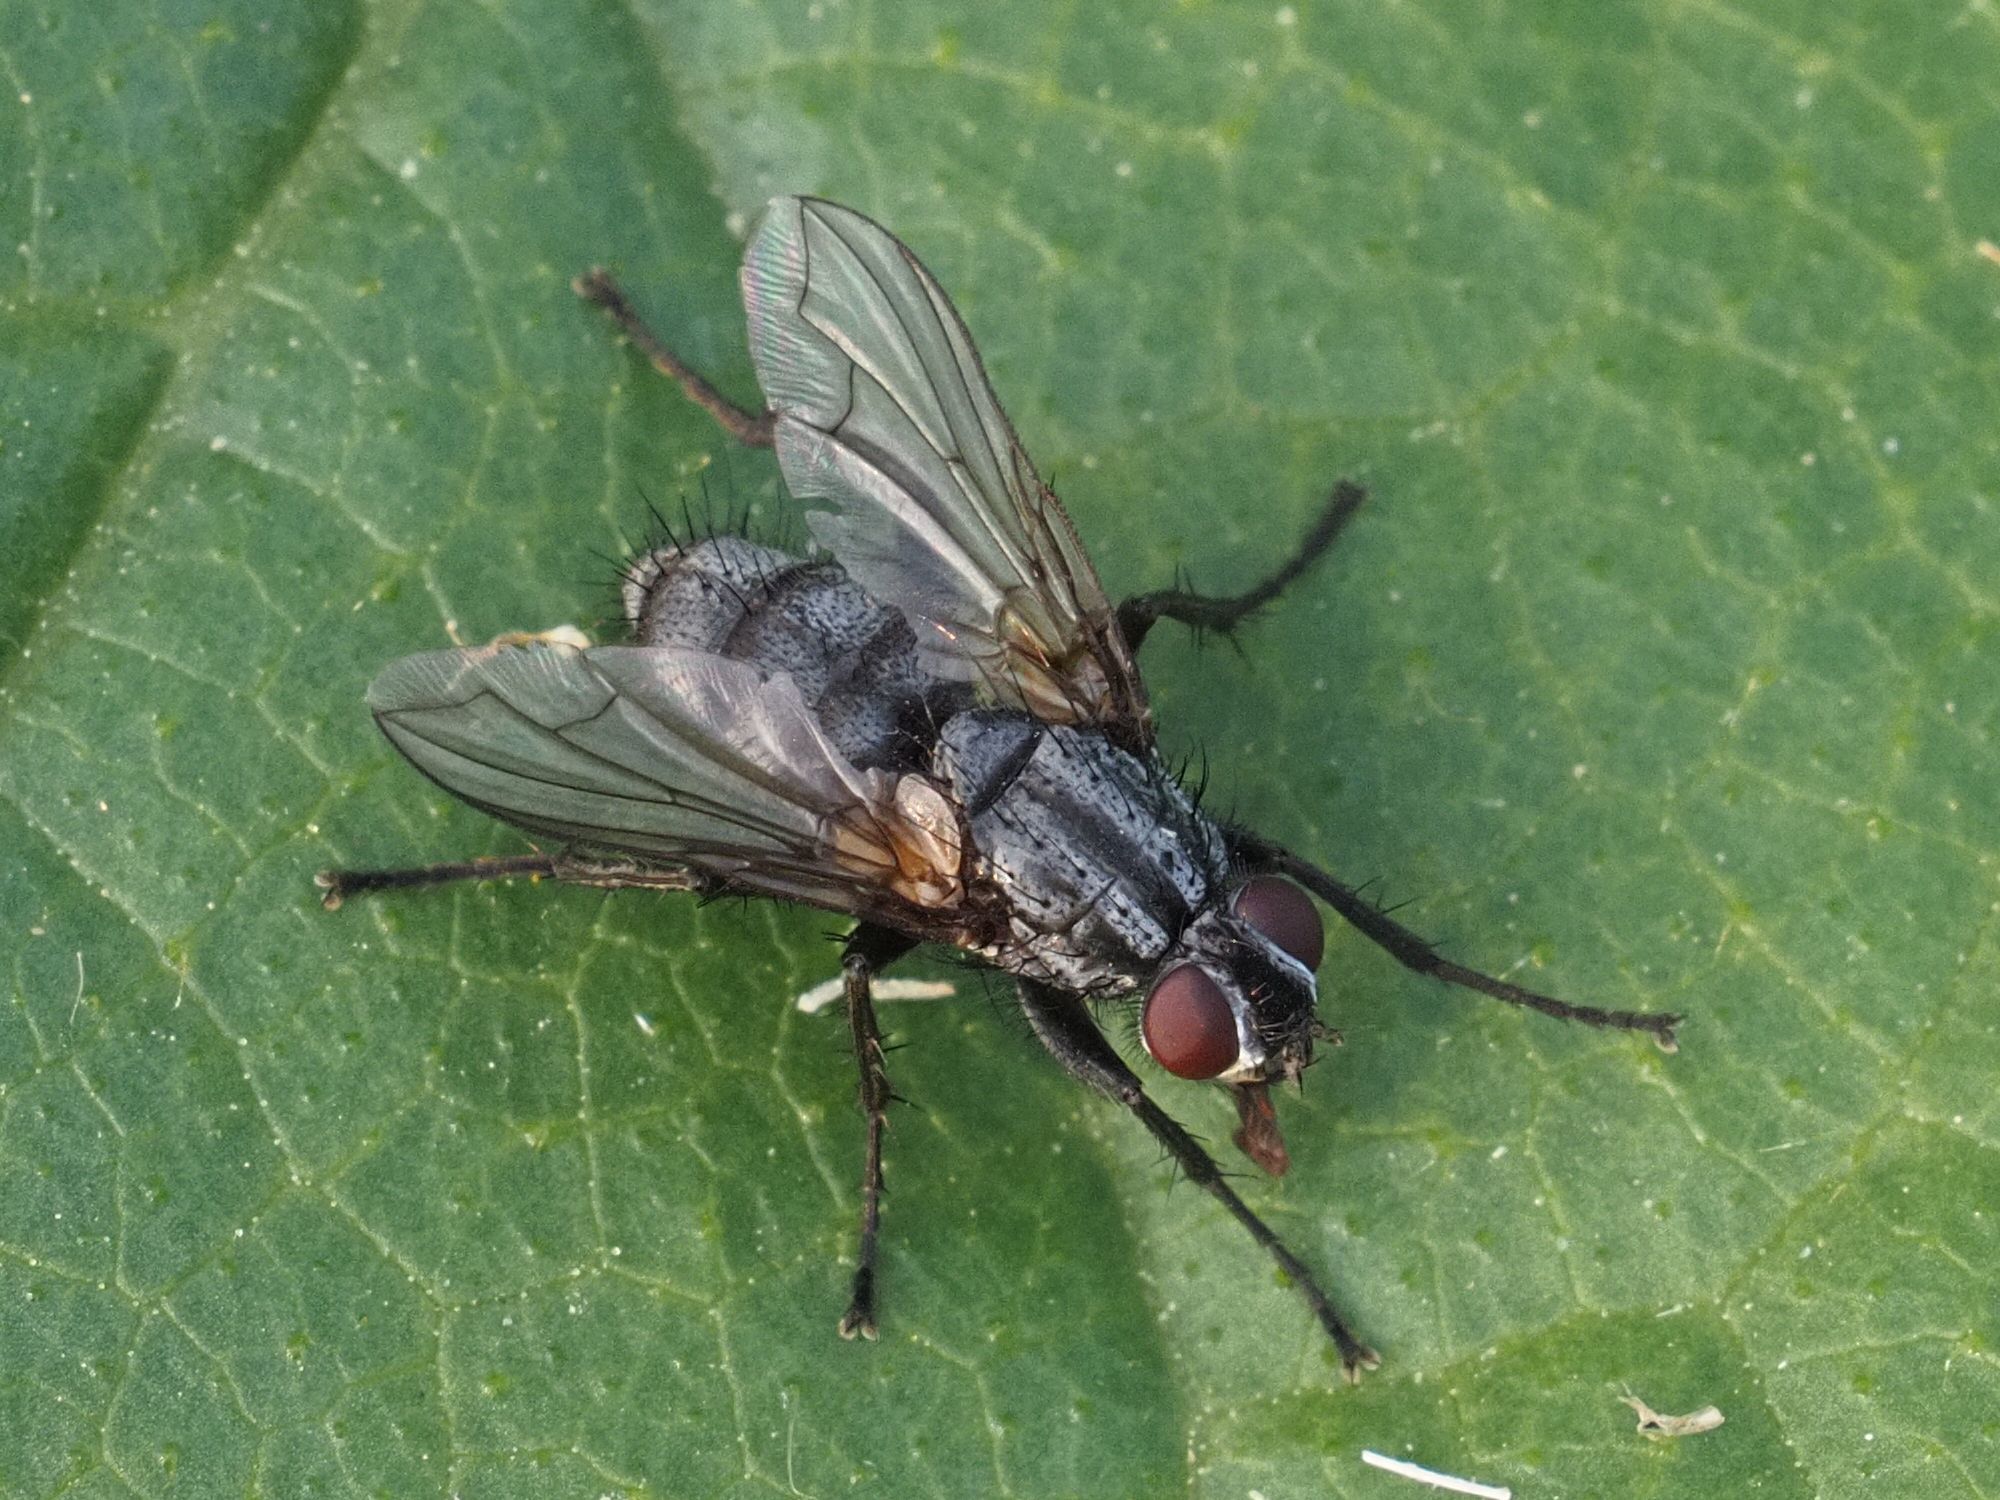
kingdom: Animalia
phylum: Arthropoda
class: Insecta
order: Diptera
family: Calliphoridae
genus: Phyto
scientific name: Phyto melanocephala
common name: Three-striped woodlouse-fly
